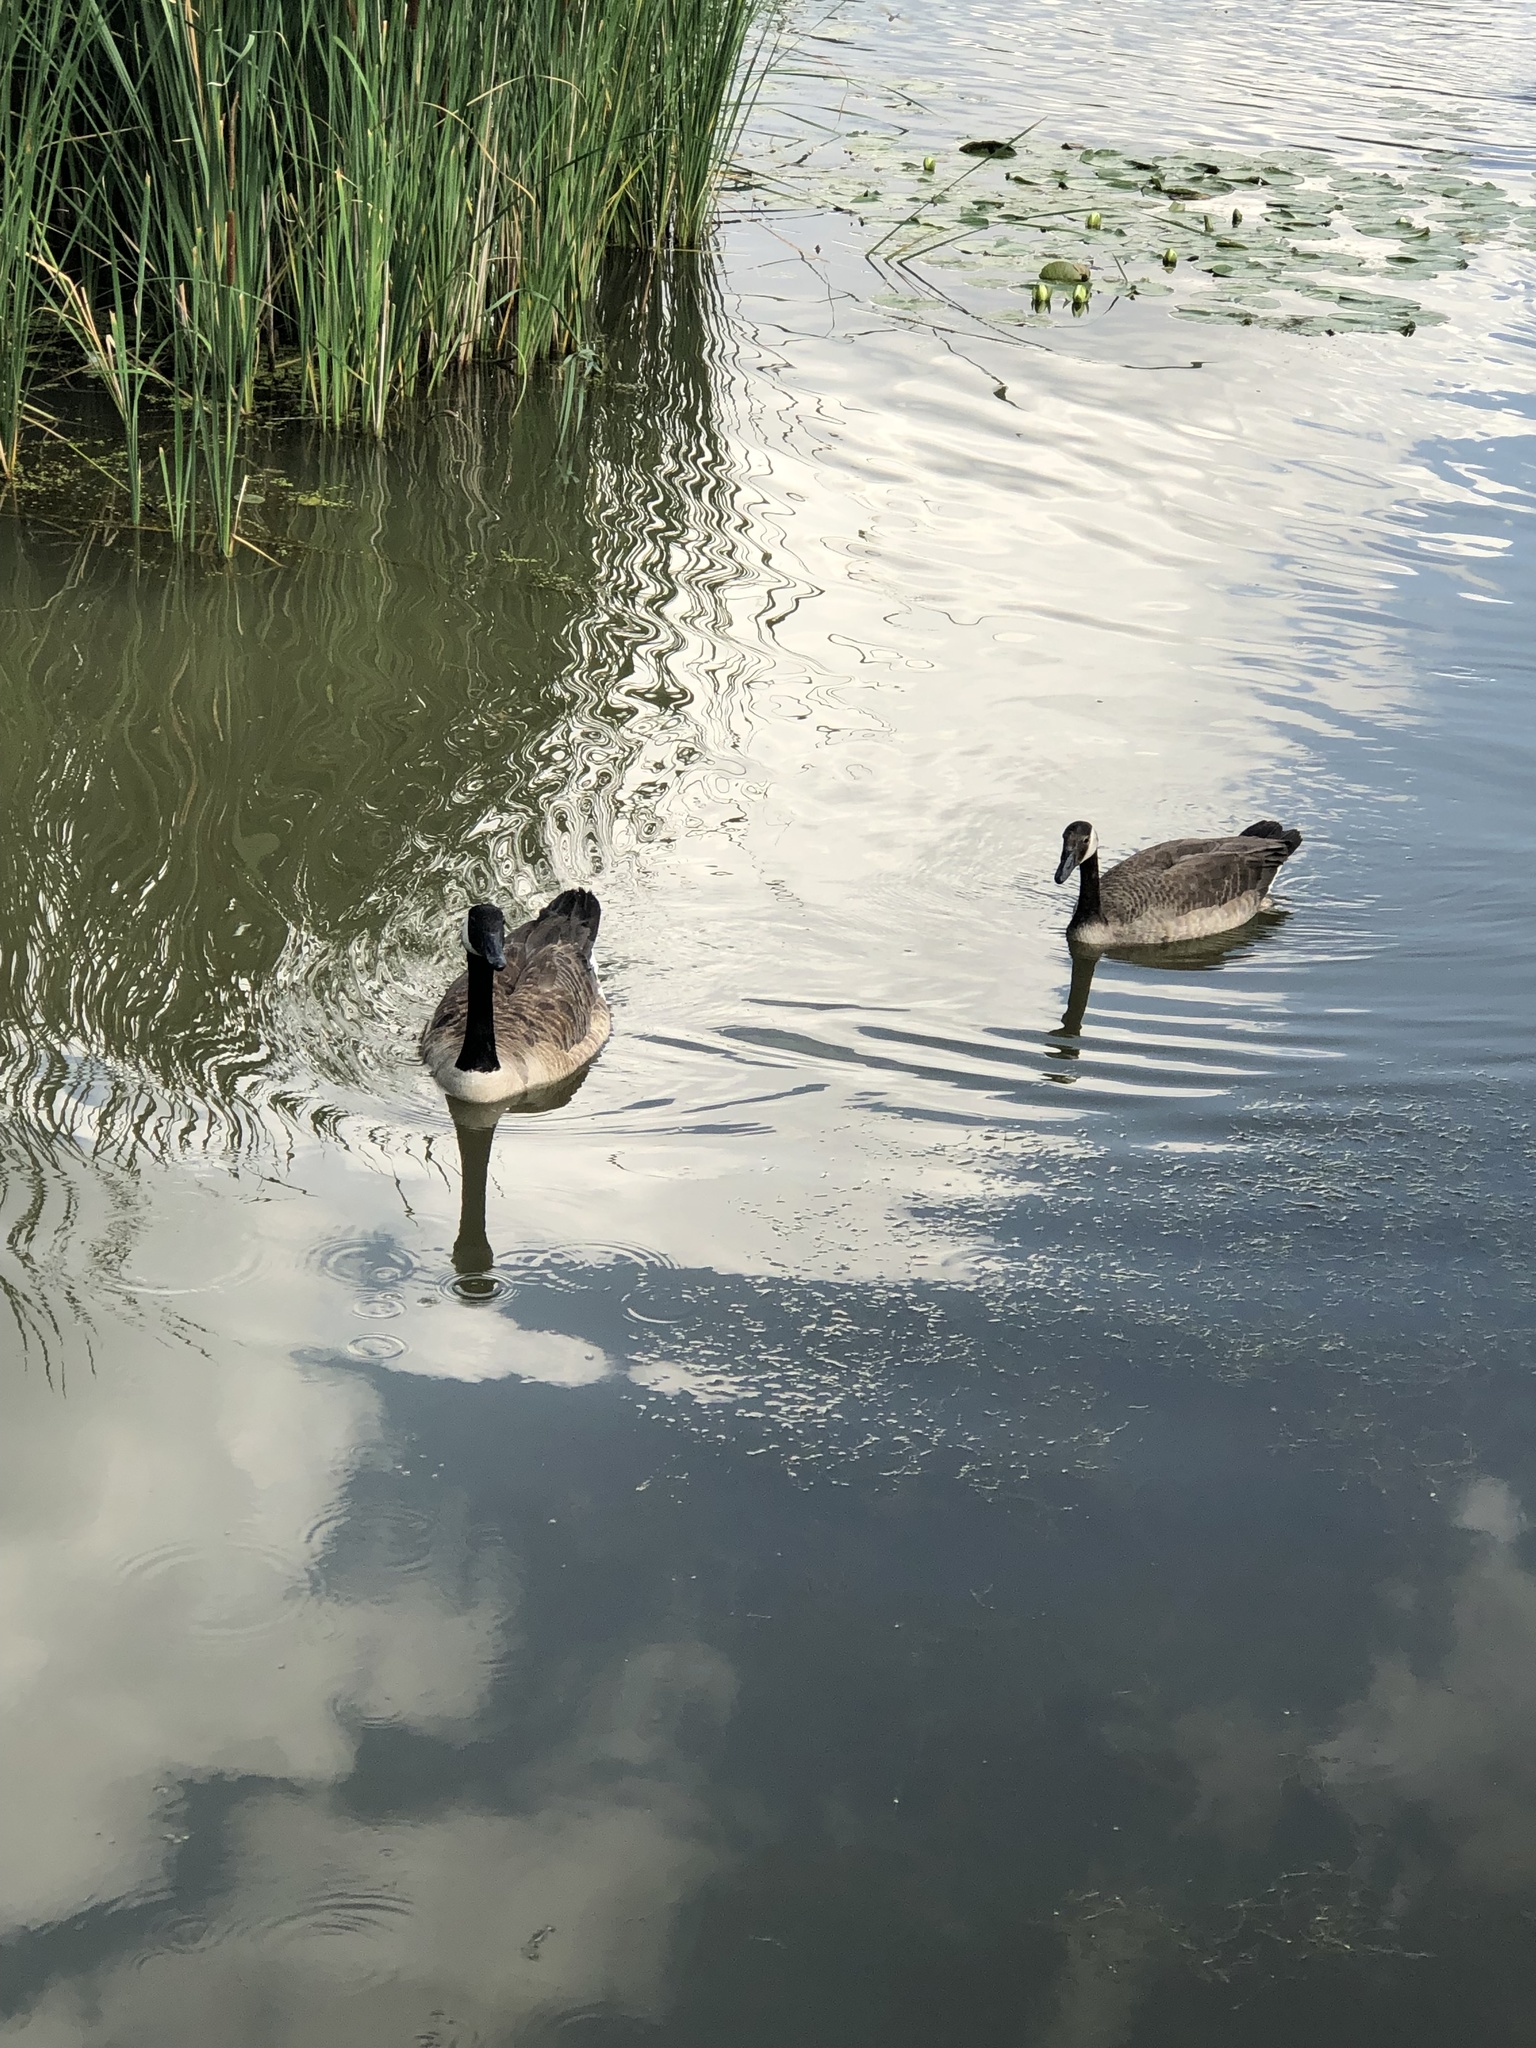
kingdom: Animalia
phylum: Chordata
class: Aves
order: Anseriformes
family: Anatidae
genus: Branta
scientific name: Branta canadensis
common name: Canada goose
